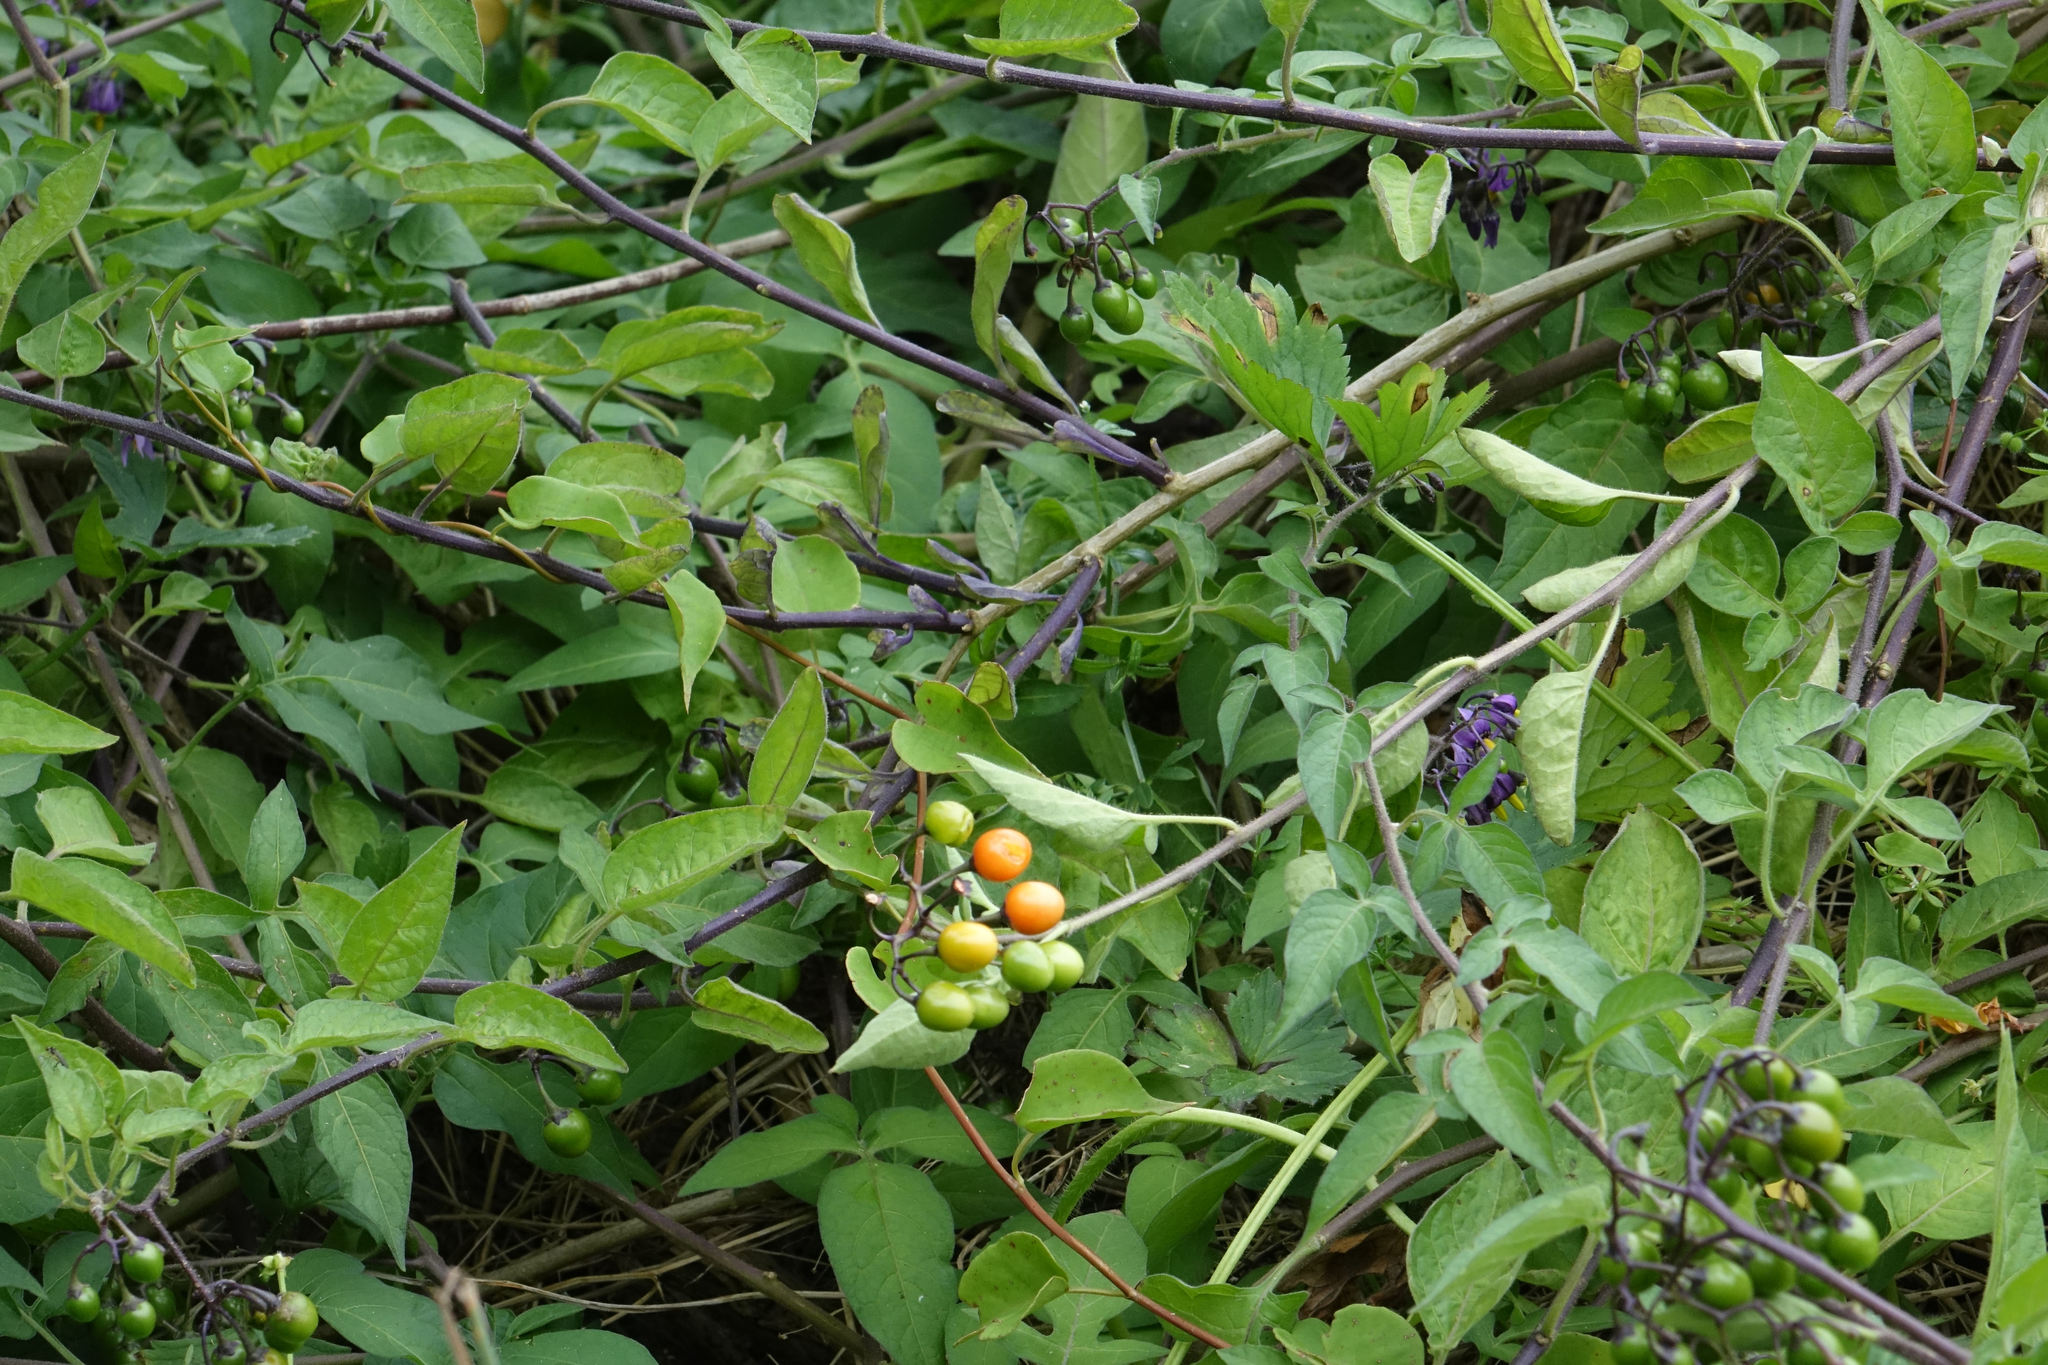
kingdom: Plantae
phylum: Tracheophyta
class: Magnoliopsida
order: Solanales
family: Solanaceae
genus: Solanum
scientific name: Solanum dulcamara
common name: Climbing nightshade
